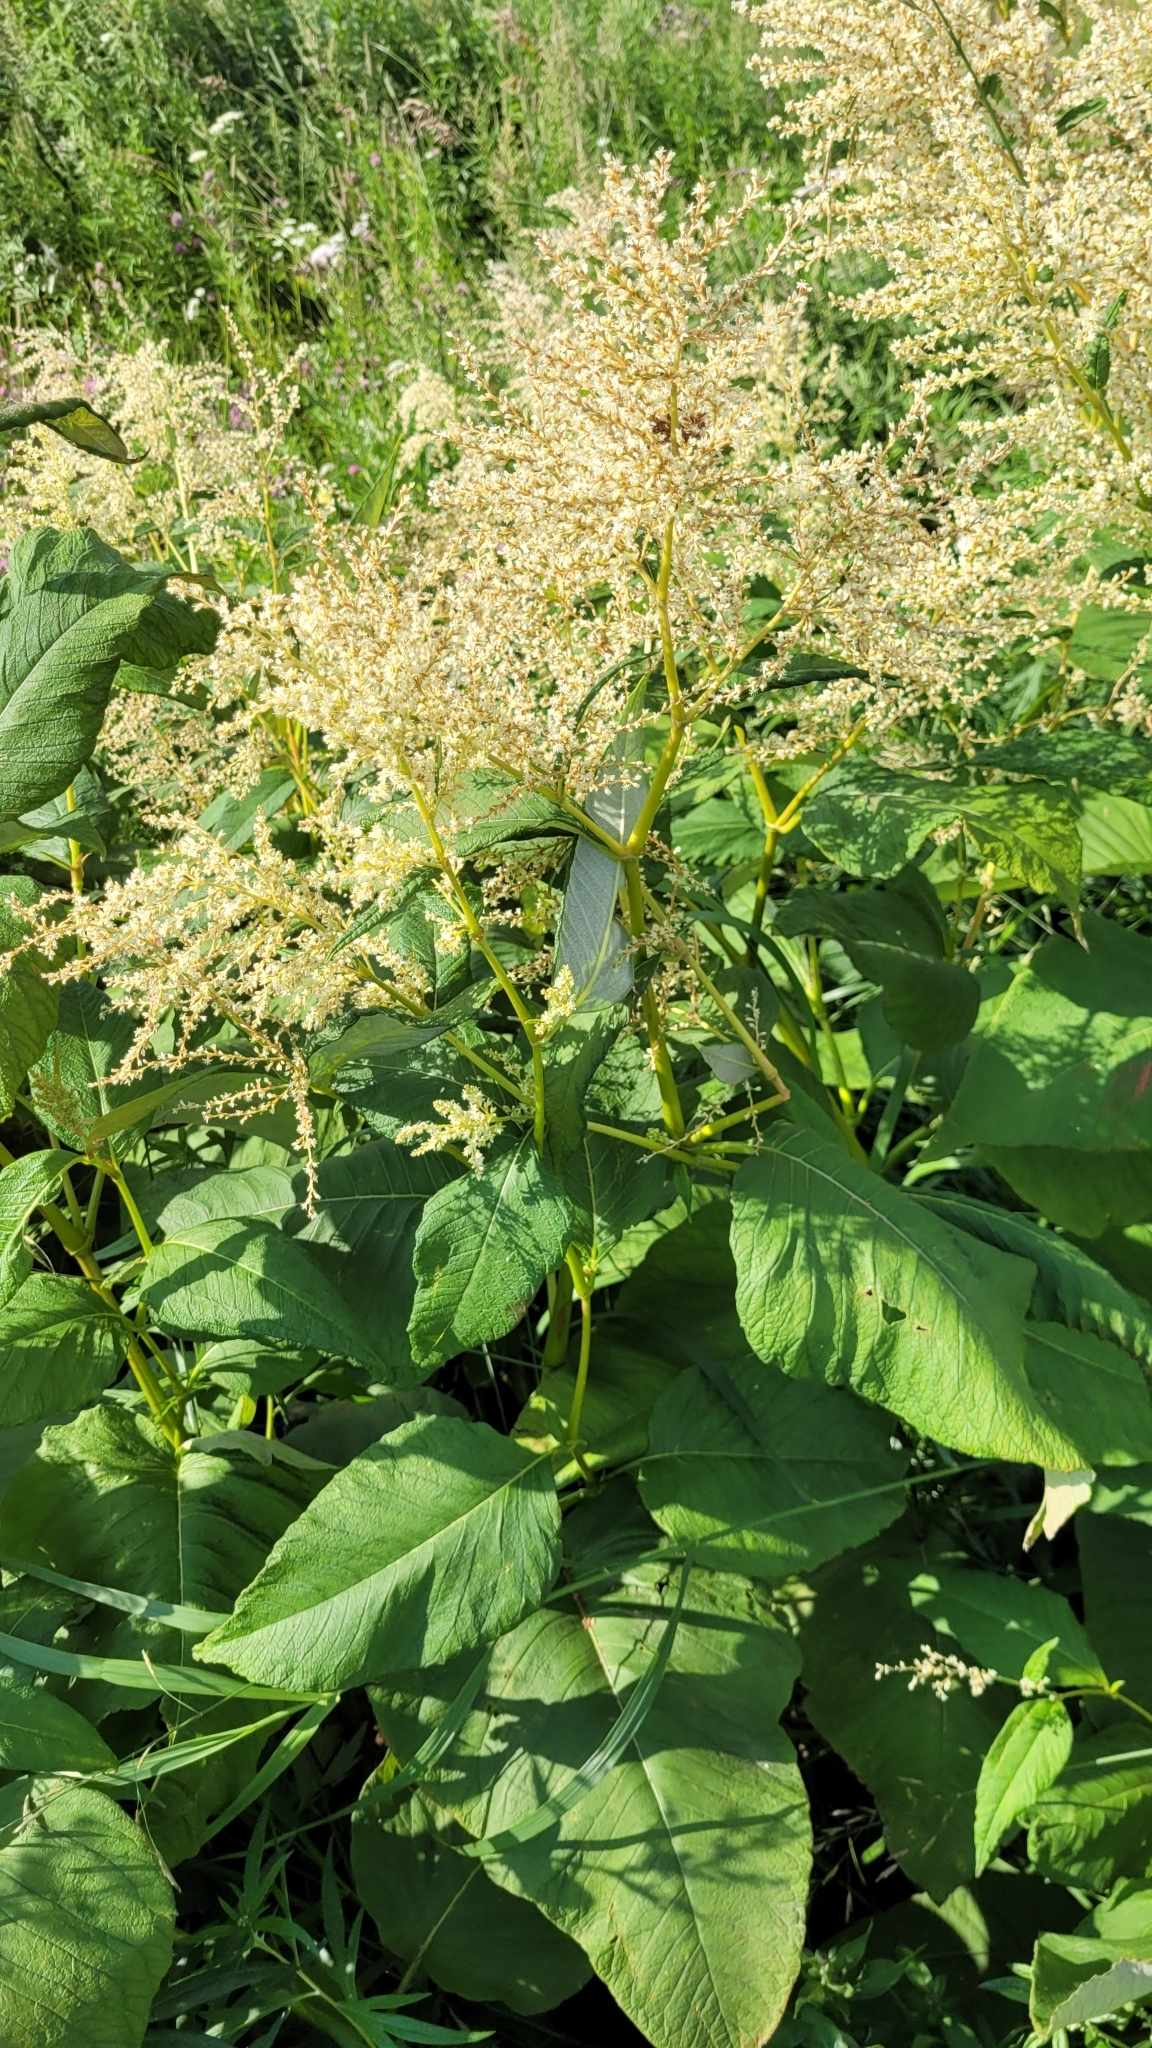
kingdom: Plantae
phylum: Tracheophyta
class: Magnoliopsida
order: Caryophyllales
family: Polygonaceae
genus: Koenigia
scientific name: Koenigia weyrichii
